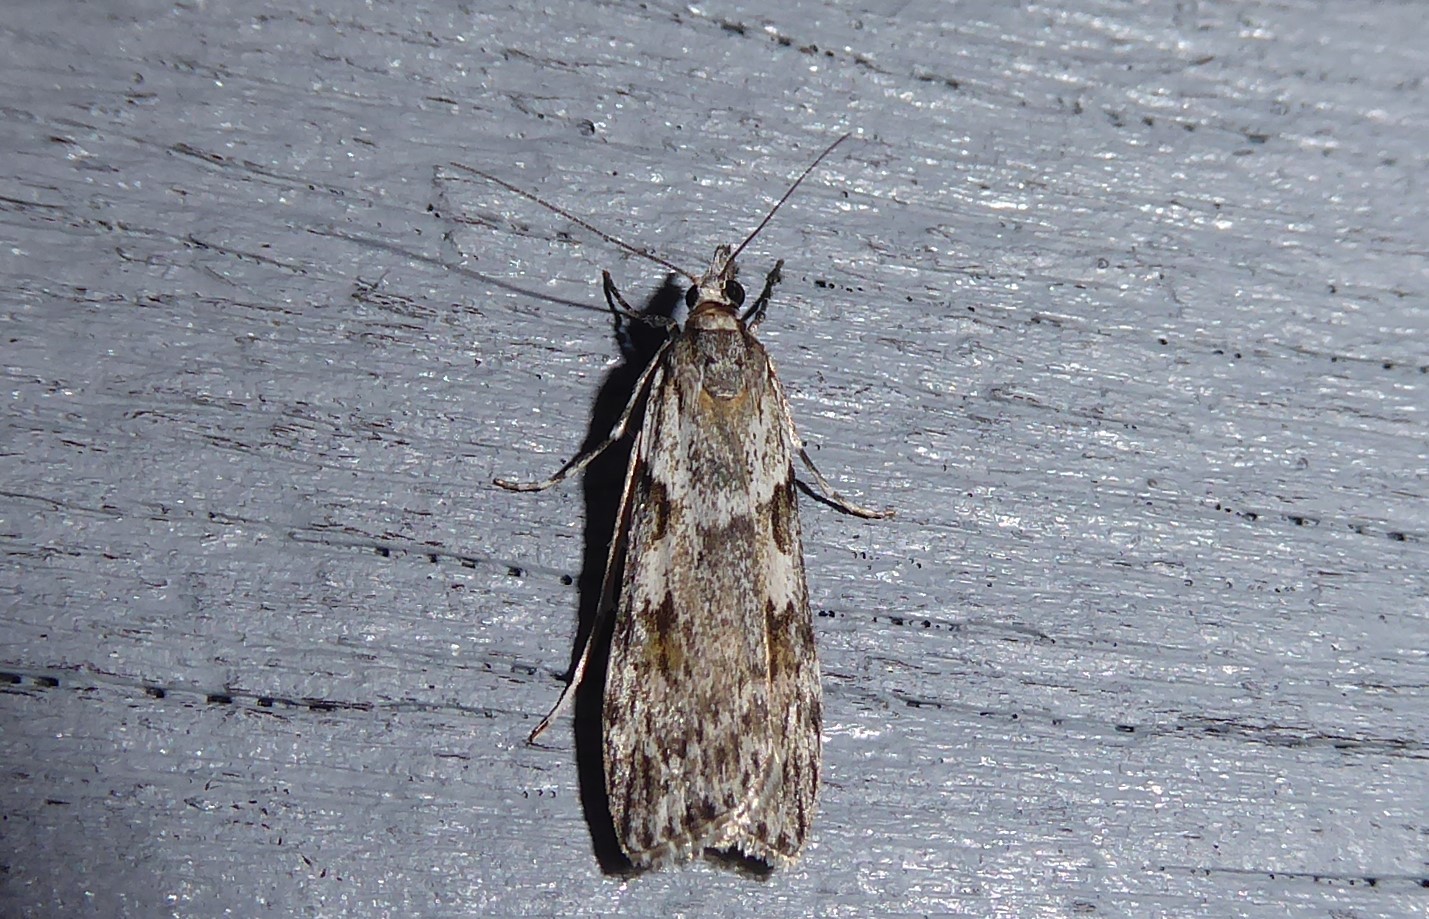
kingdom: Animalia
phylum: Arthropoda
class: Insecta
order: Lepidoptera
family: Crambidae
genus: Scoparia
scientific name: Scoparia halopis
